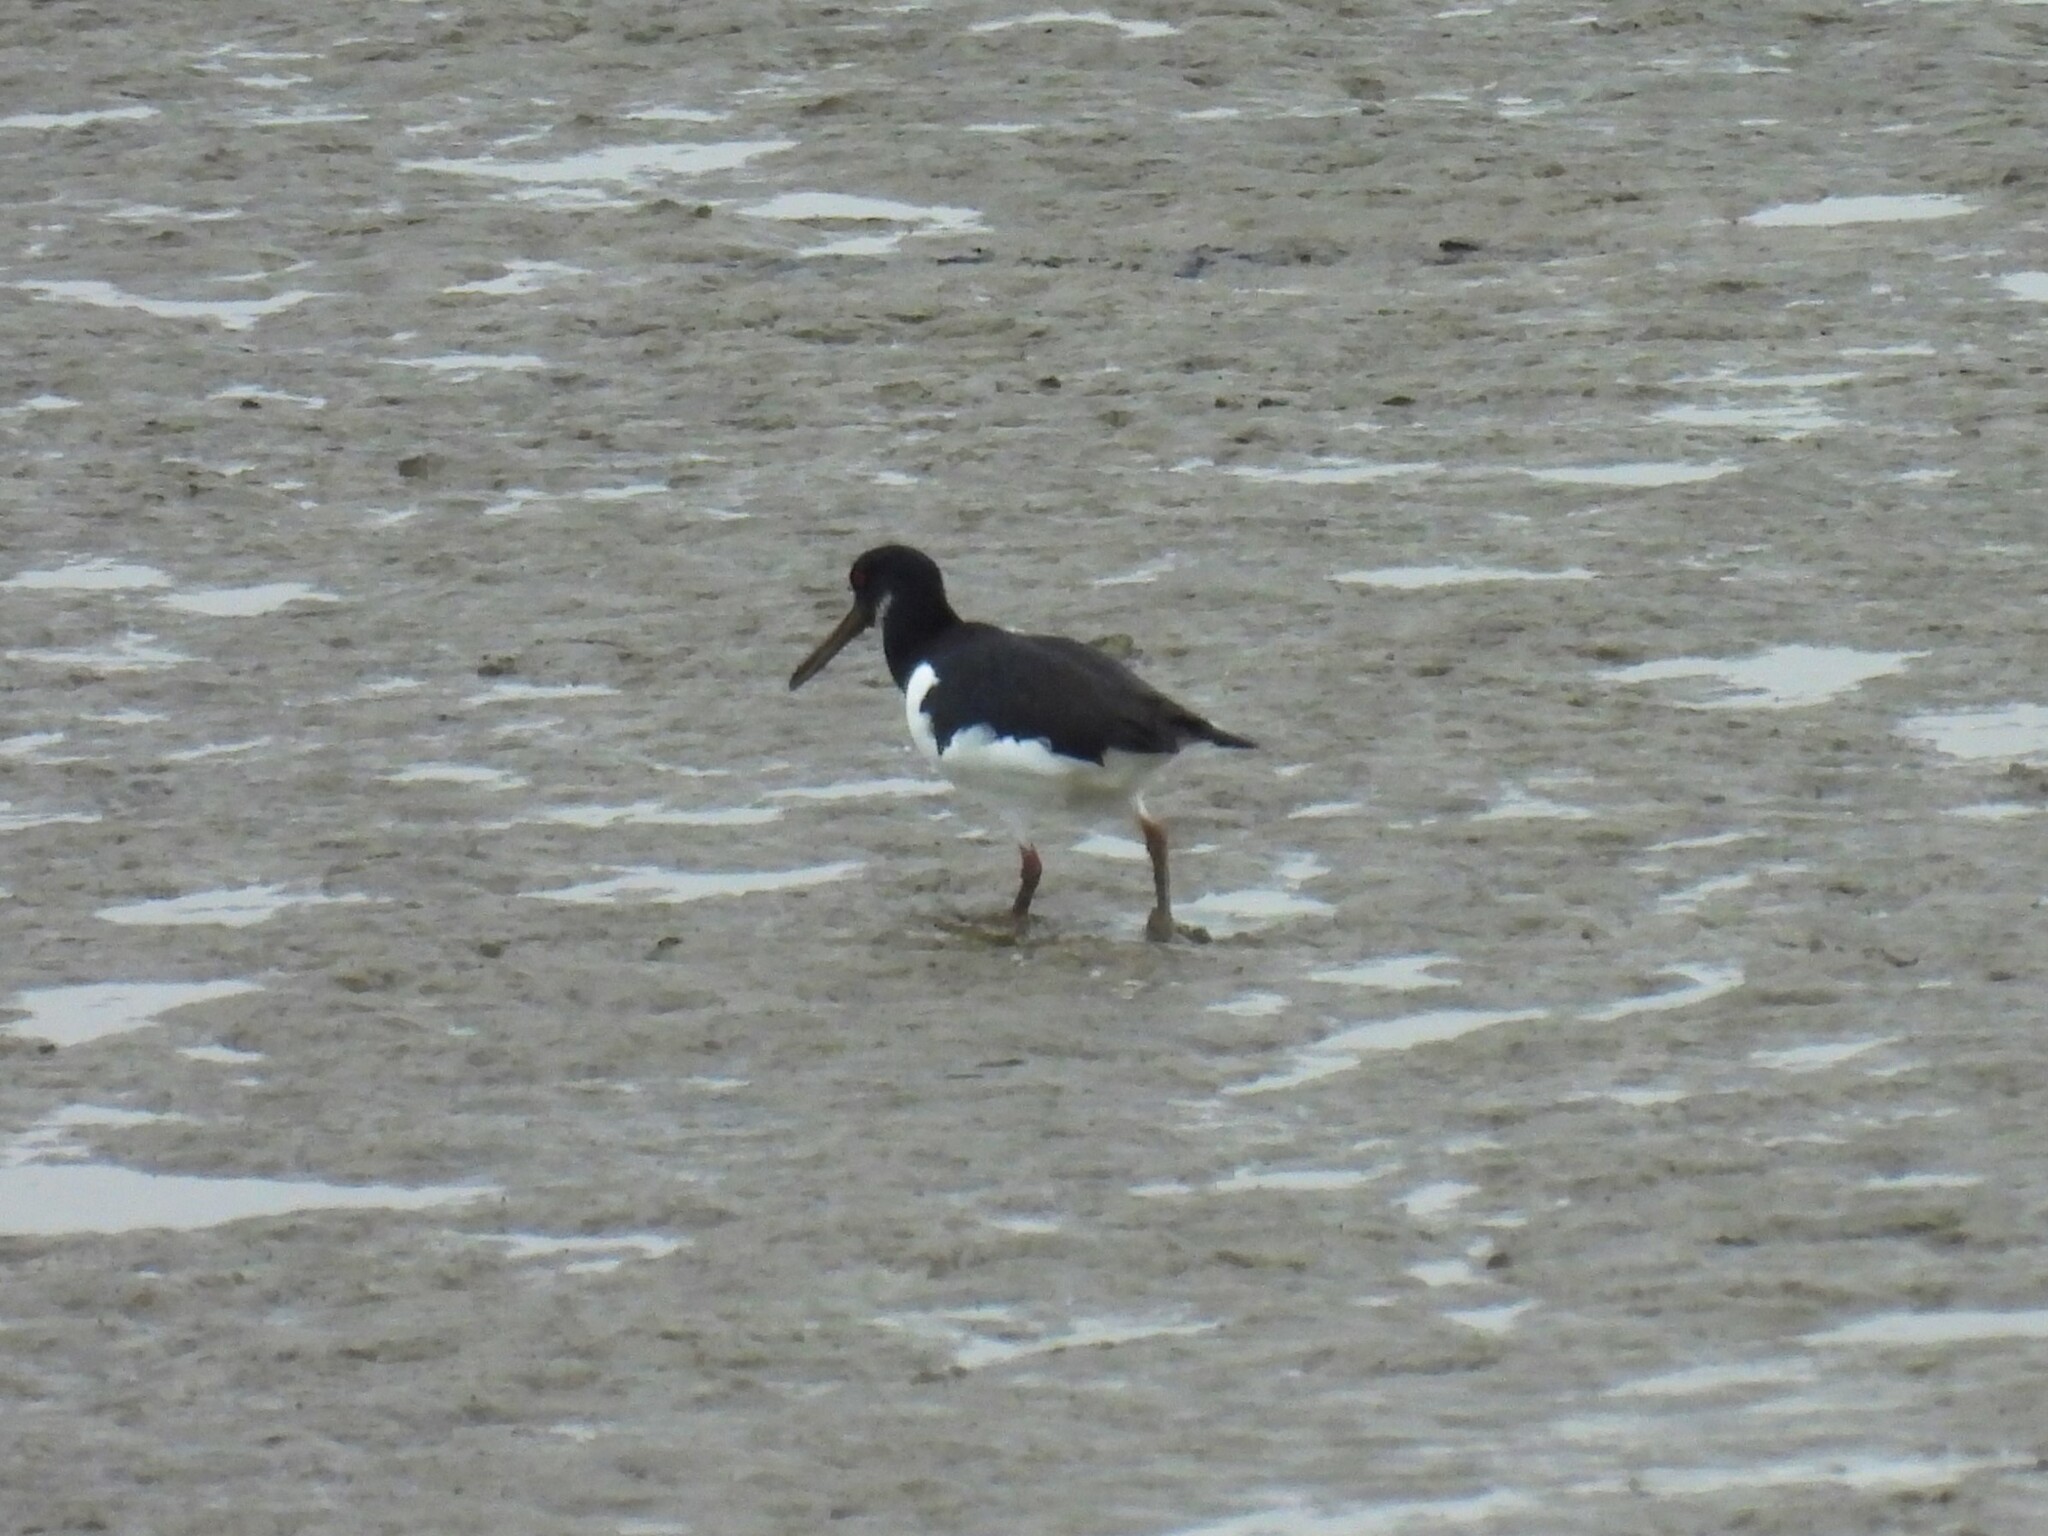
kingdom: Animalia
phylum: Chordata
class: Aves
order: Charadriiformes
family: Haematopodidae
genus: Haematopus
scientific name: Haematopus ostralegus
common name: Eurasian oystercatcher
